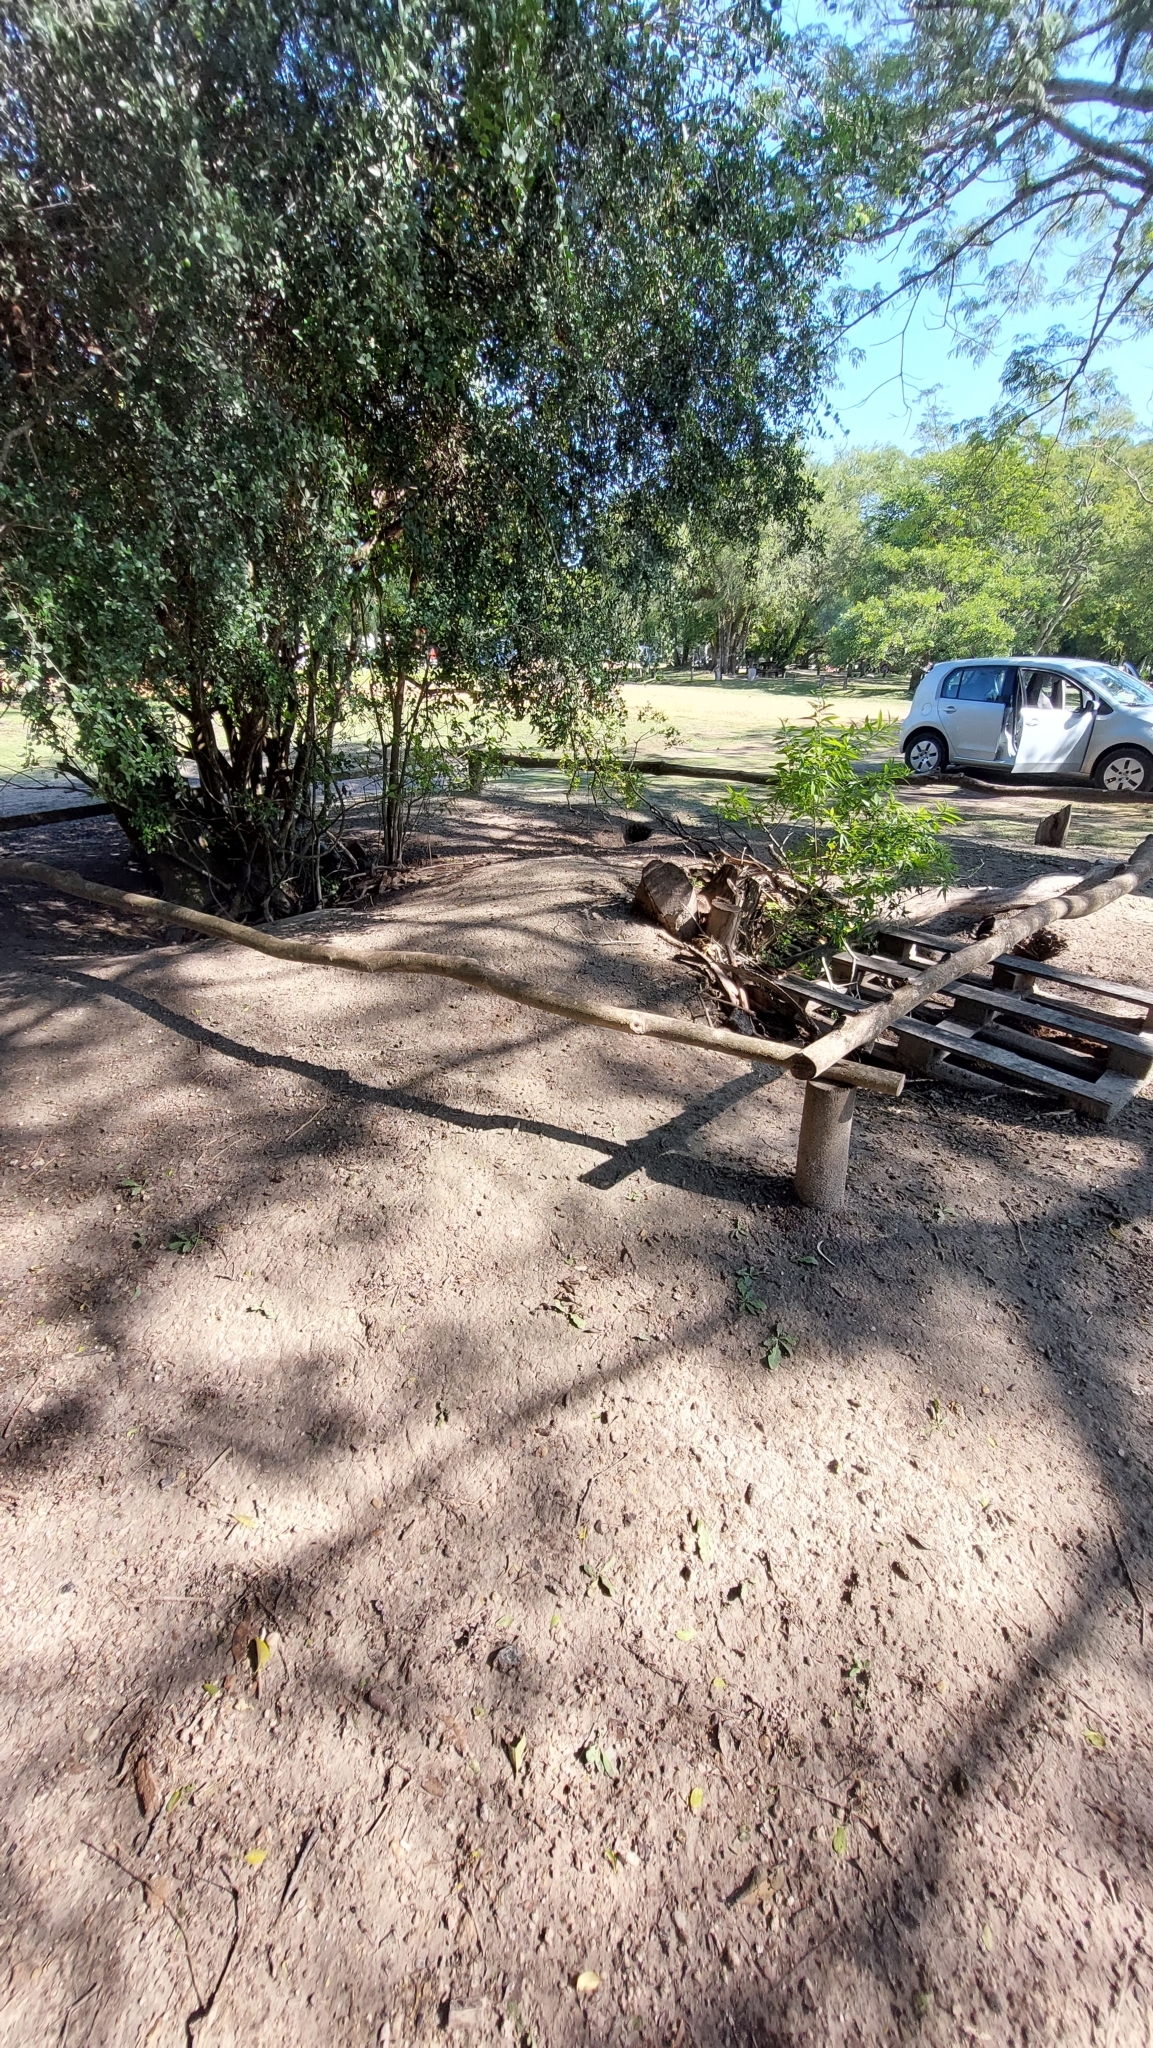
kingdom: Animalia
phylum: Chordata
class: Mammalia
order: Rodentia
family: Chinchillidae
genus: Lagostomus
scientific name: Lagostomus maximus
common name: Plains viscacha
